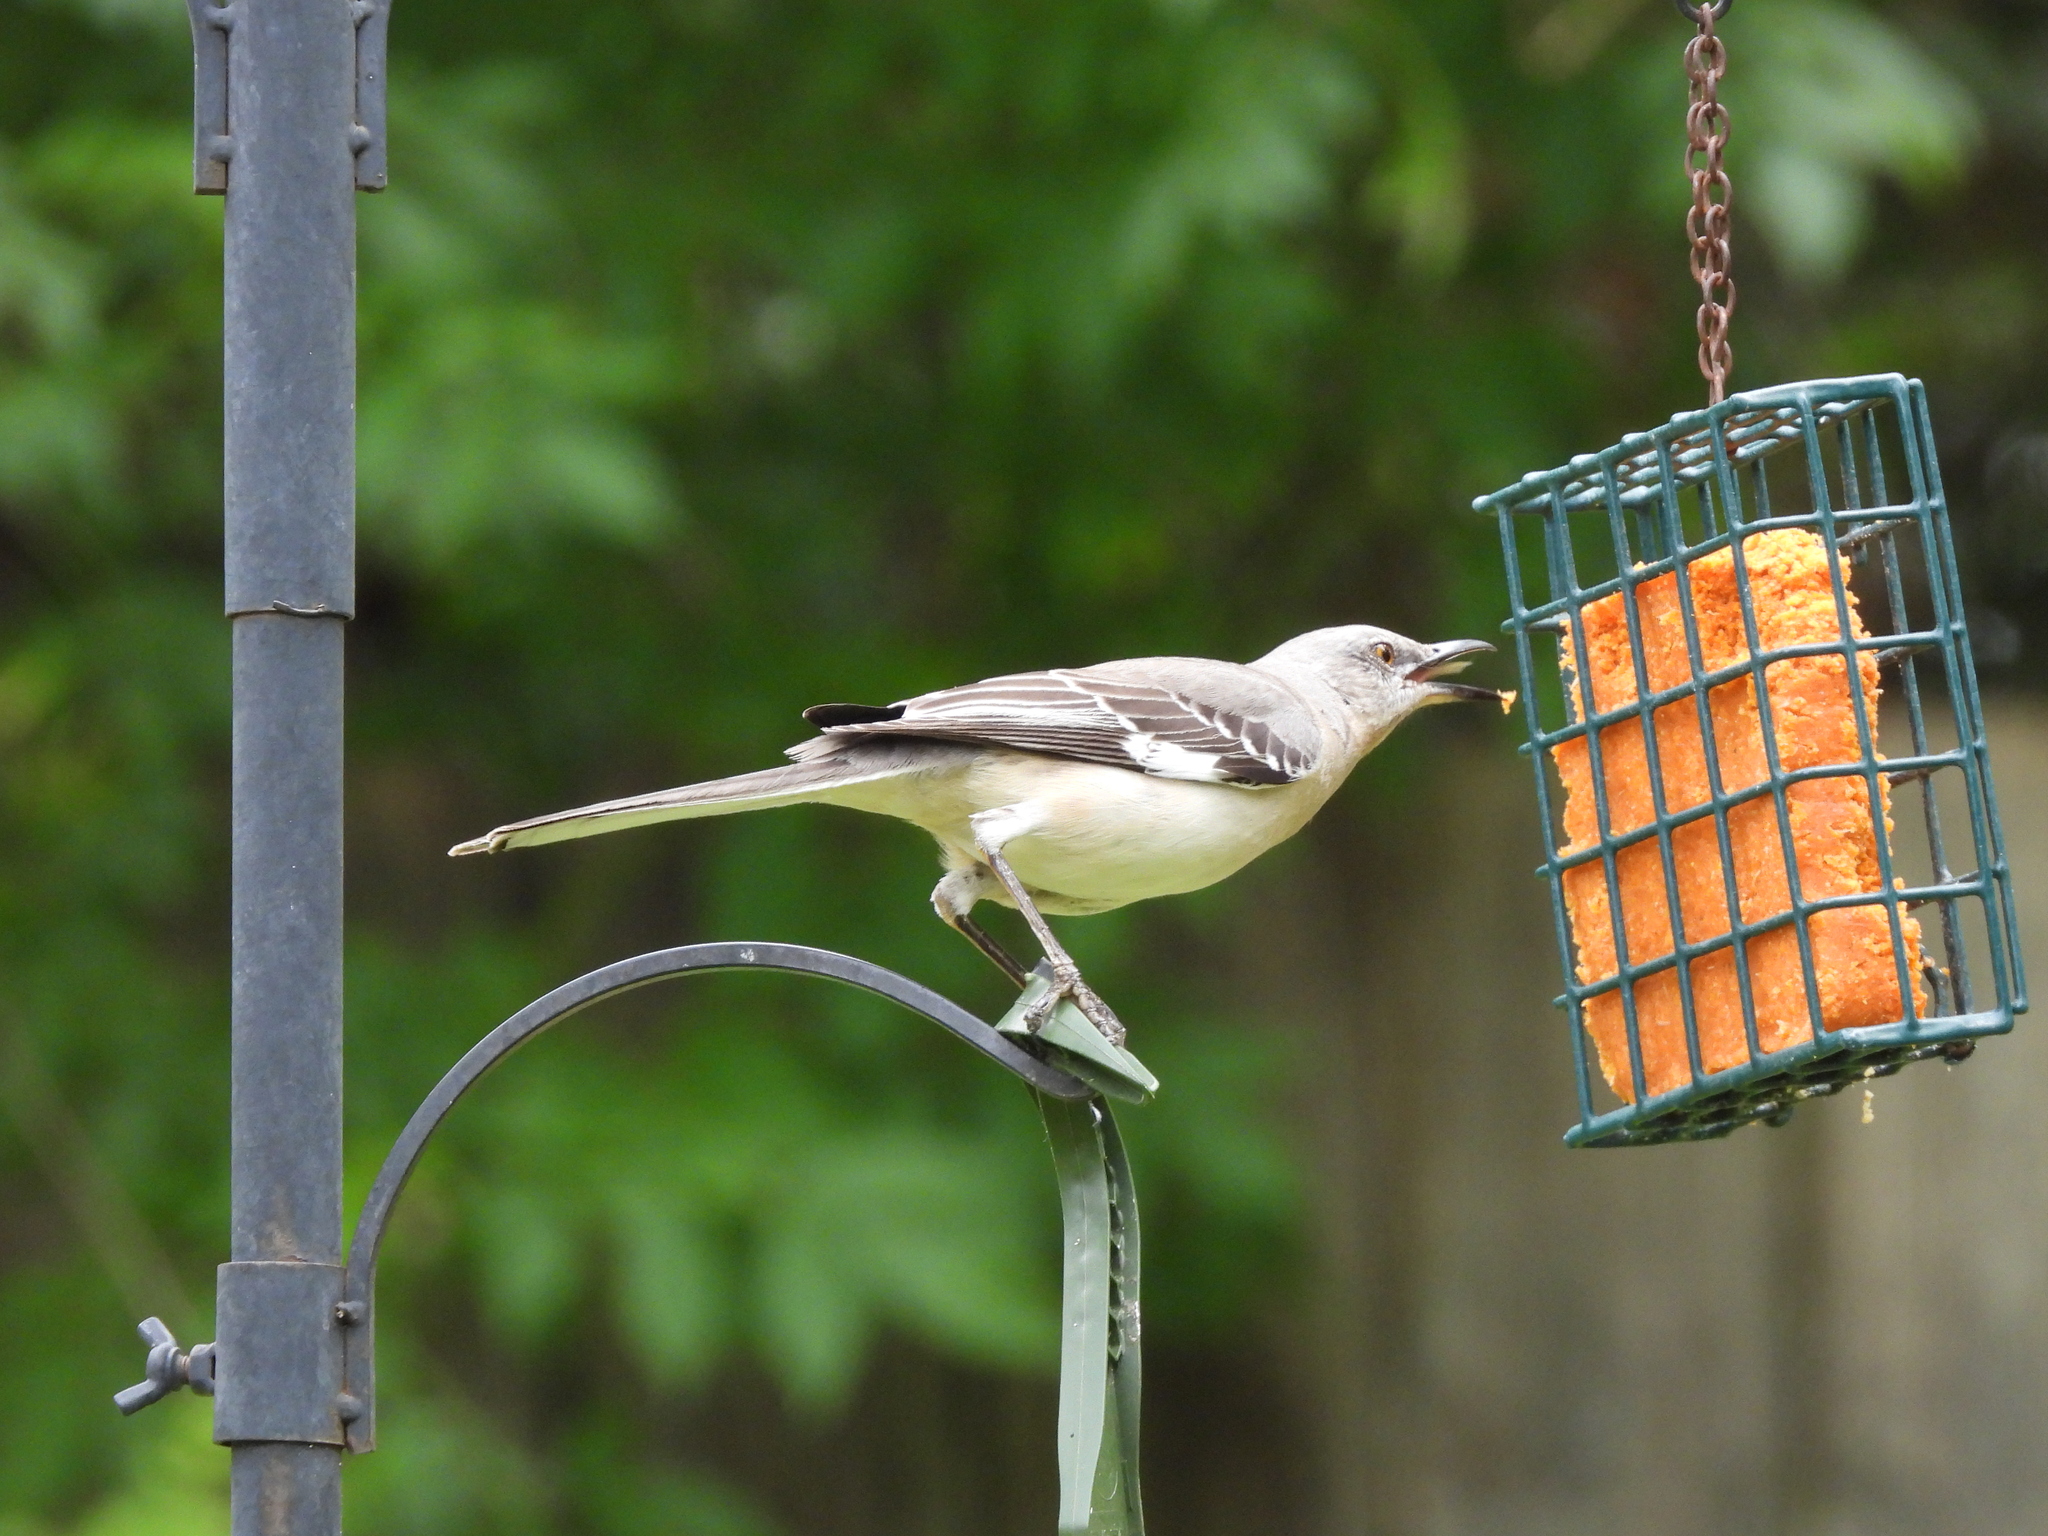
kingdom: Animalia
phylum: Chordata
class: Aves
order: Passeriformes
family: Mimidae
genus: Mimus
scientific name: Mimus polyglottos
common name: Northern mockingbird
